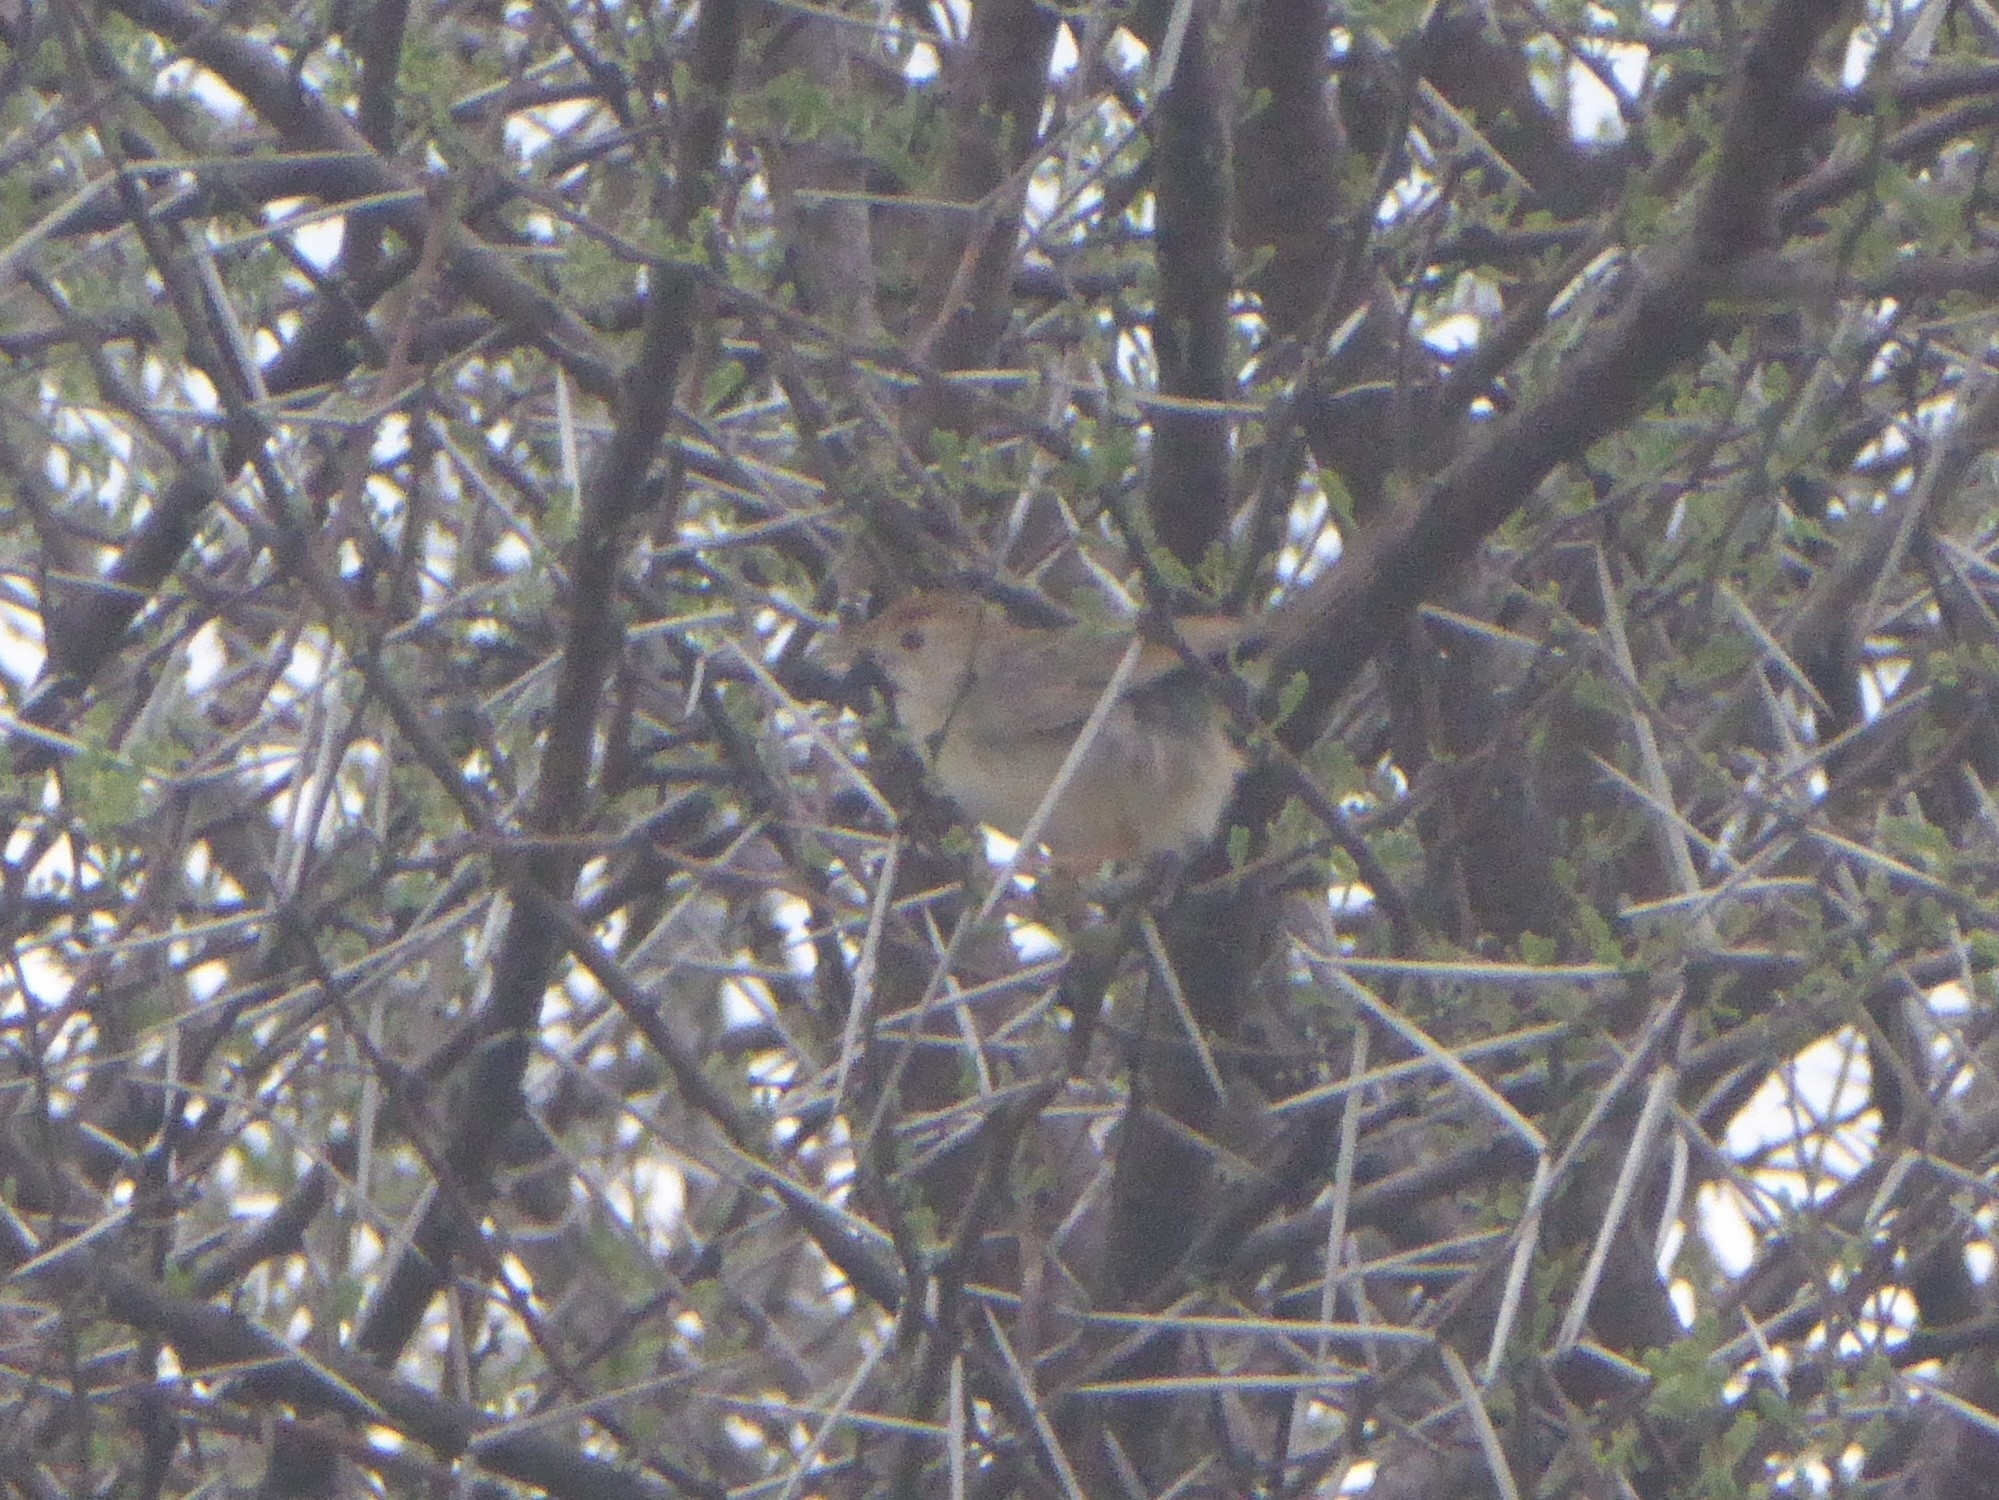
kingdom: Animalia
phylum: Chordata
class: Aves
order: Passeriformes
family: Cisticolidae
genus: Cisticola
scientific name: Cisticola fulvicapilla
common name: Neddicky
